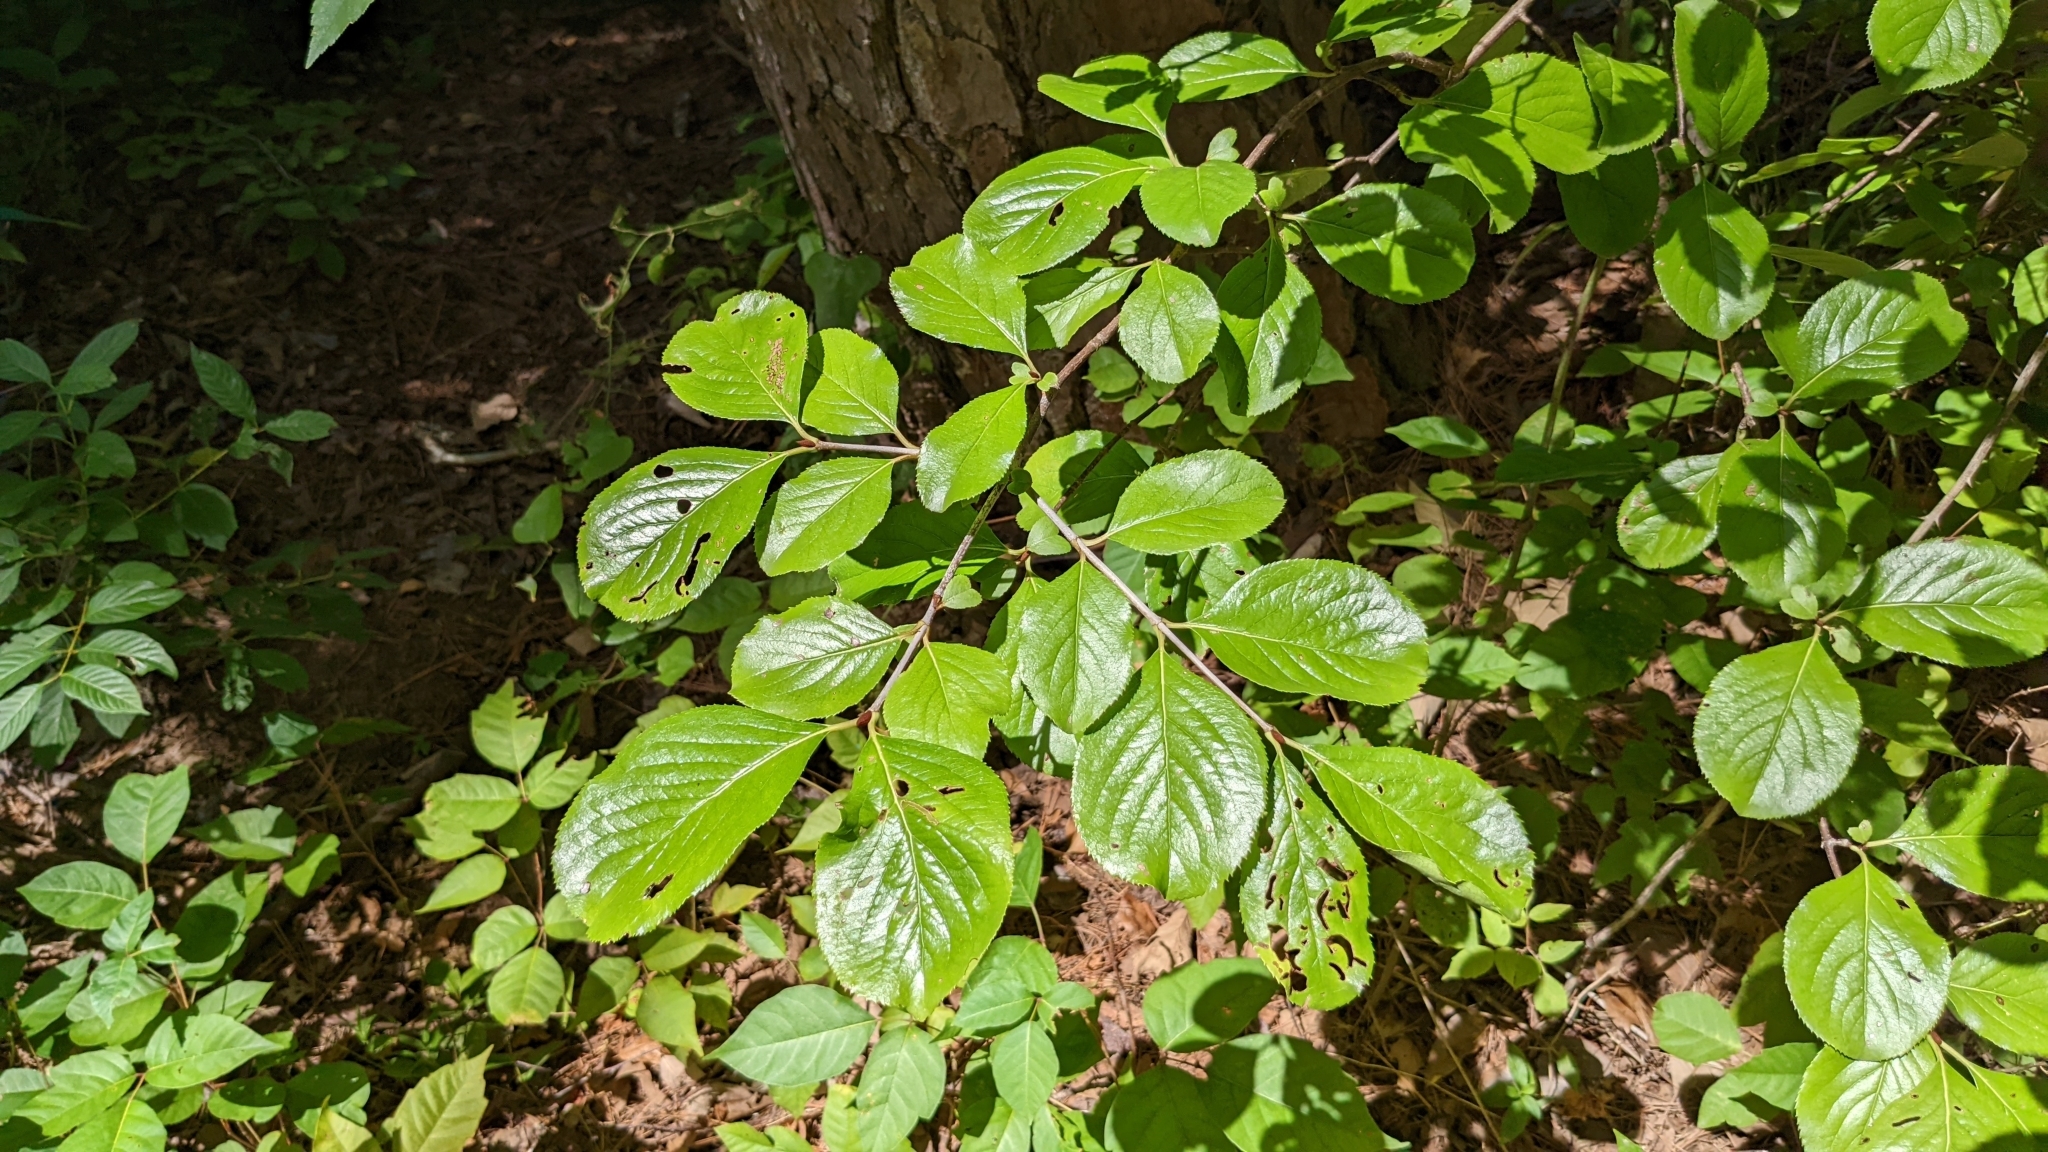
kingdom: Plantae
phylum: Tracheophyta
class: Magnoliopsida
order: Dipsacales
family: Viburnaceae
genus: Viburnum
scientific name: Viburnum rufidulum
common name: Blue haw
